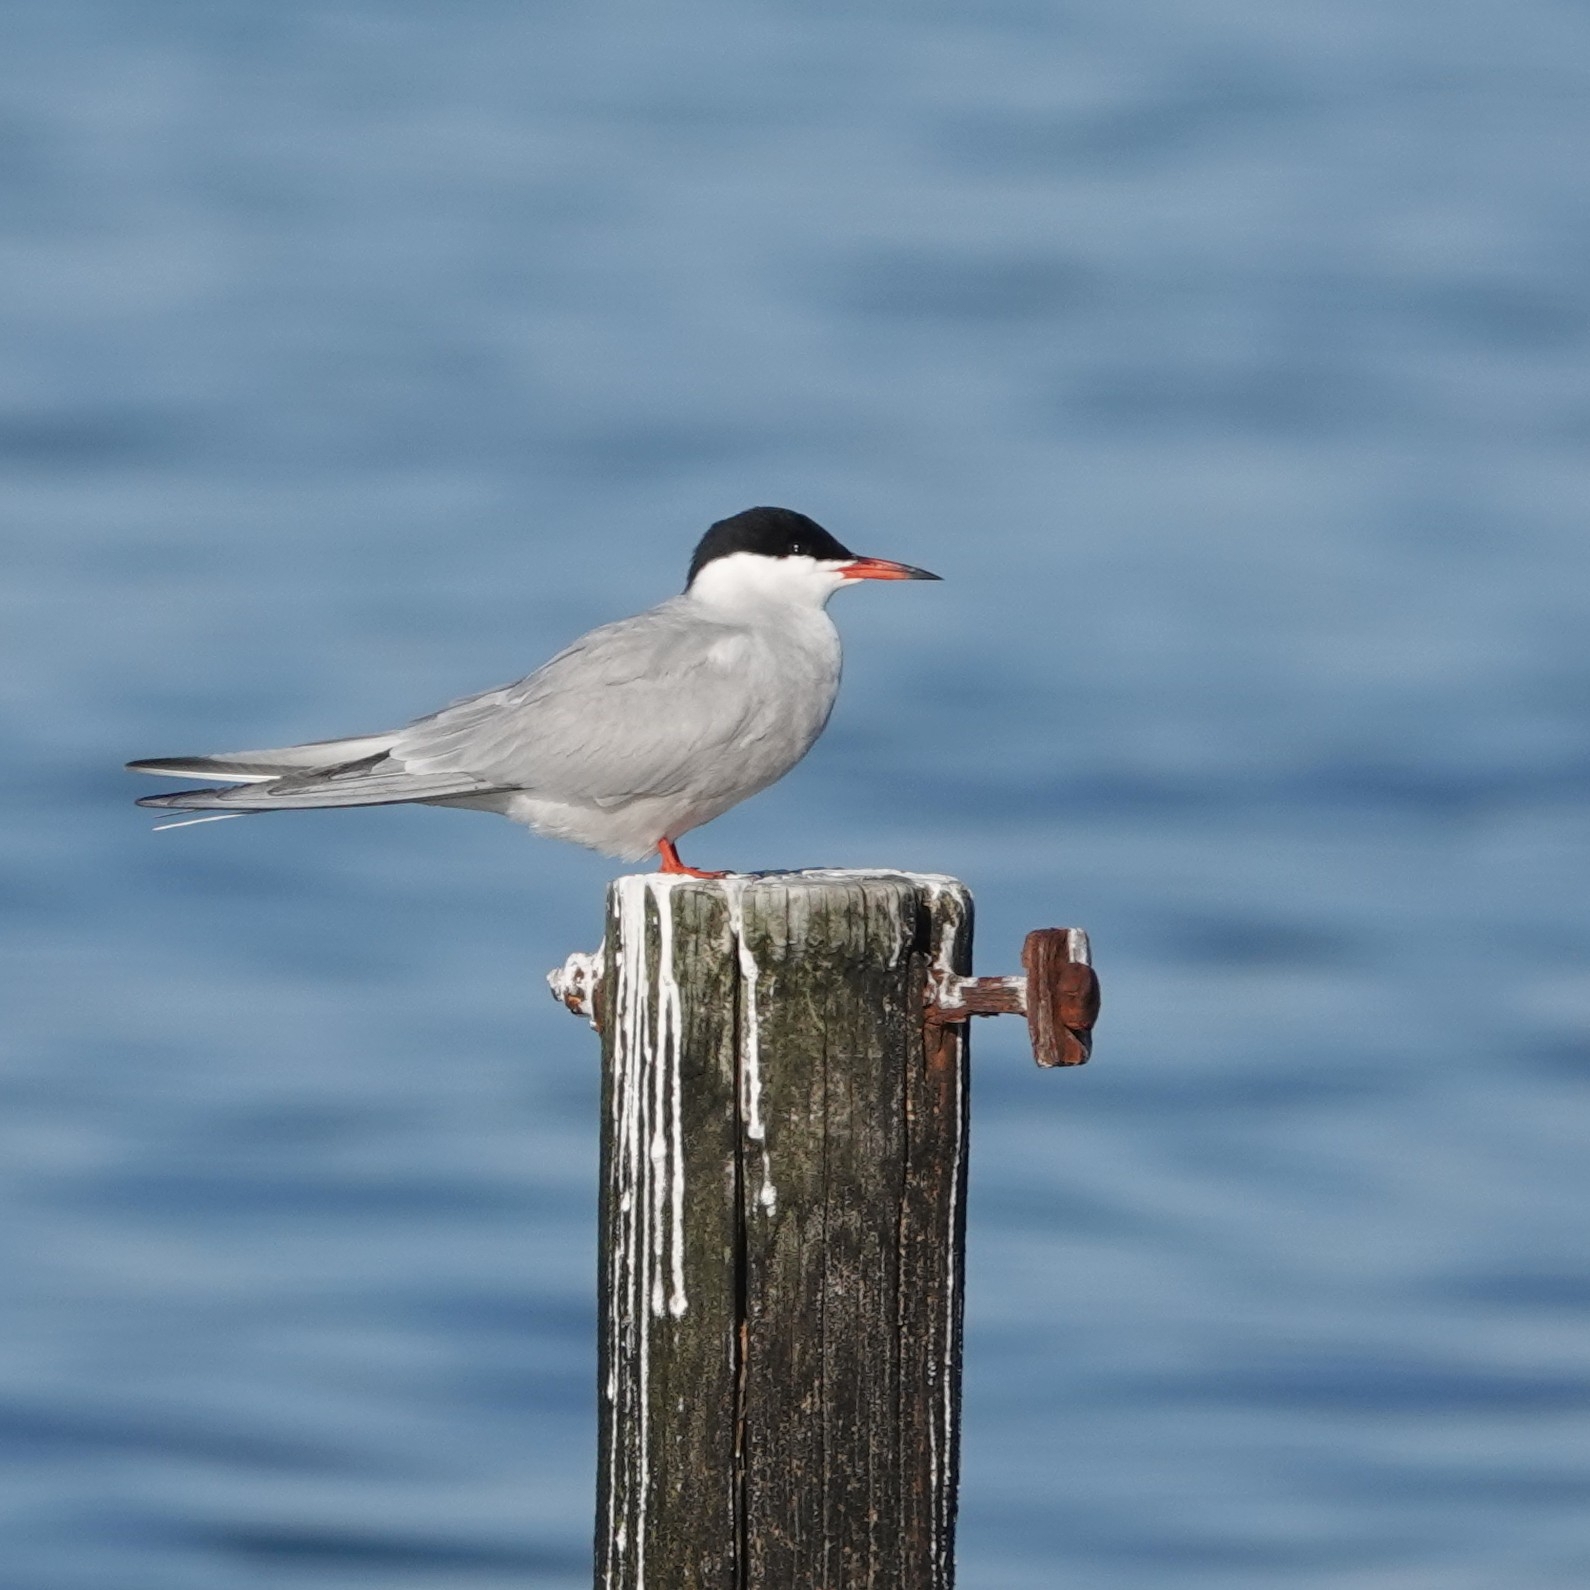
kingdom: Animalia
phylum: Chordata
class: Aves
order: Charadriiformes
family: Laridae
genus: Sterna
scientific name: Sterna hirundo
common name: Common tern
